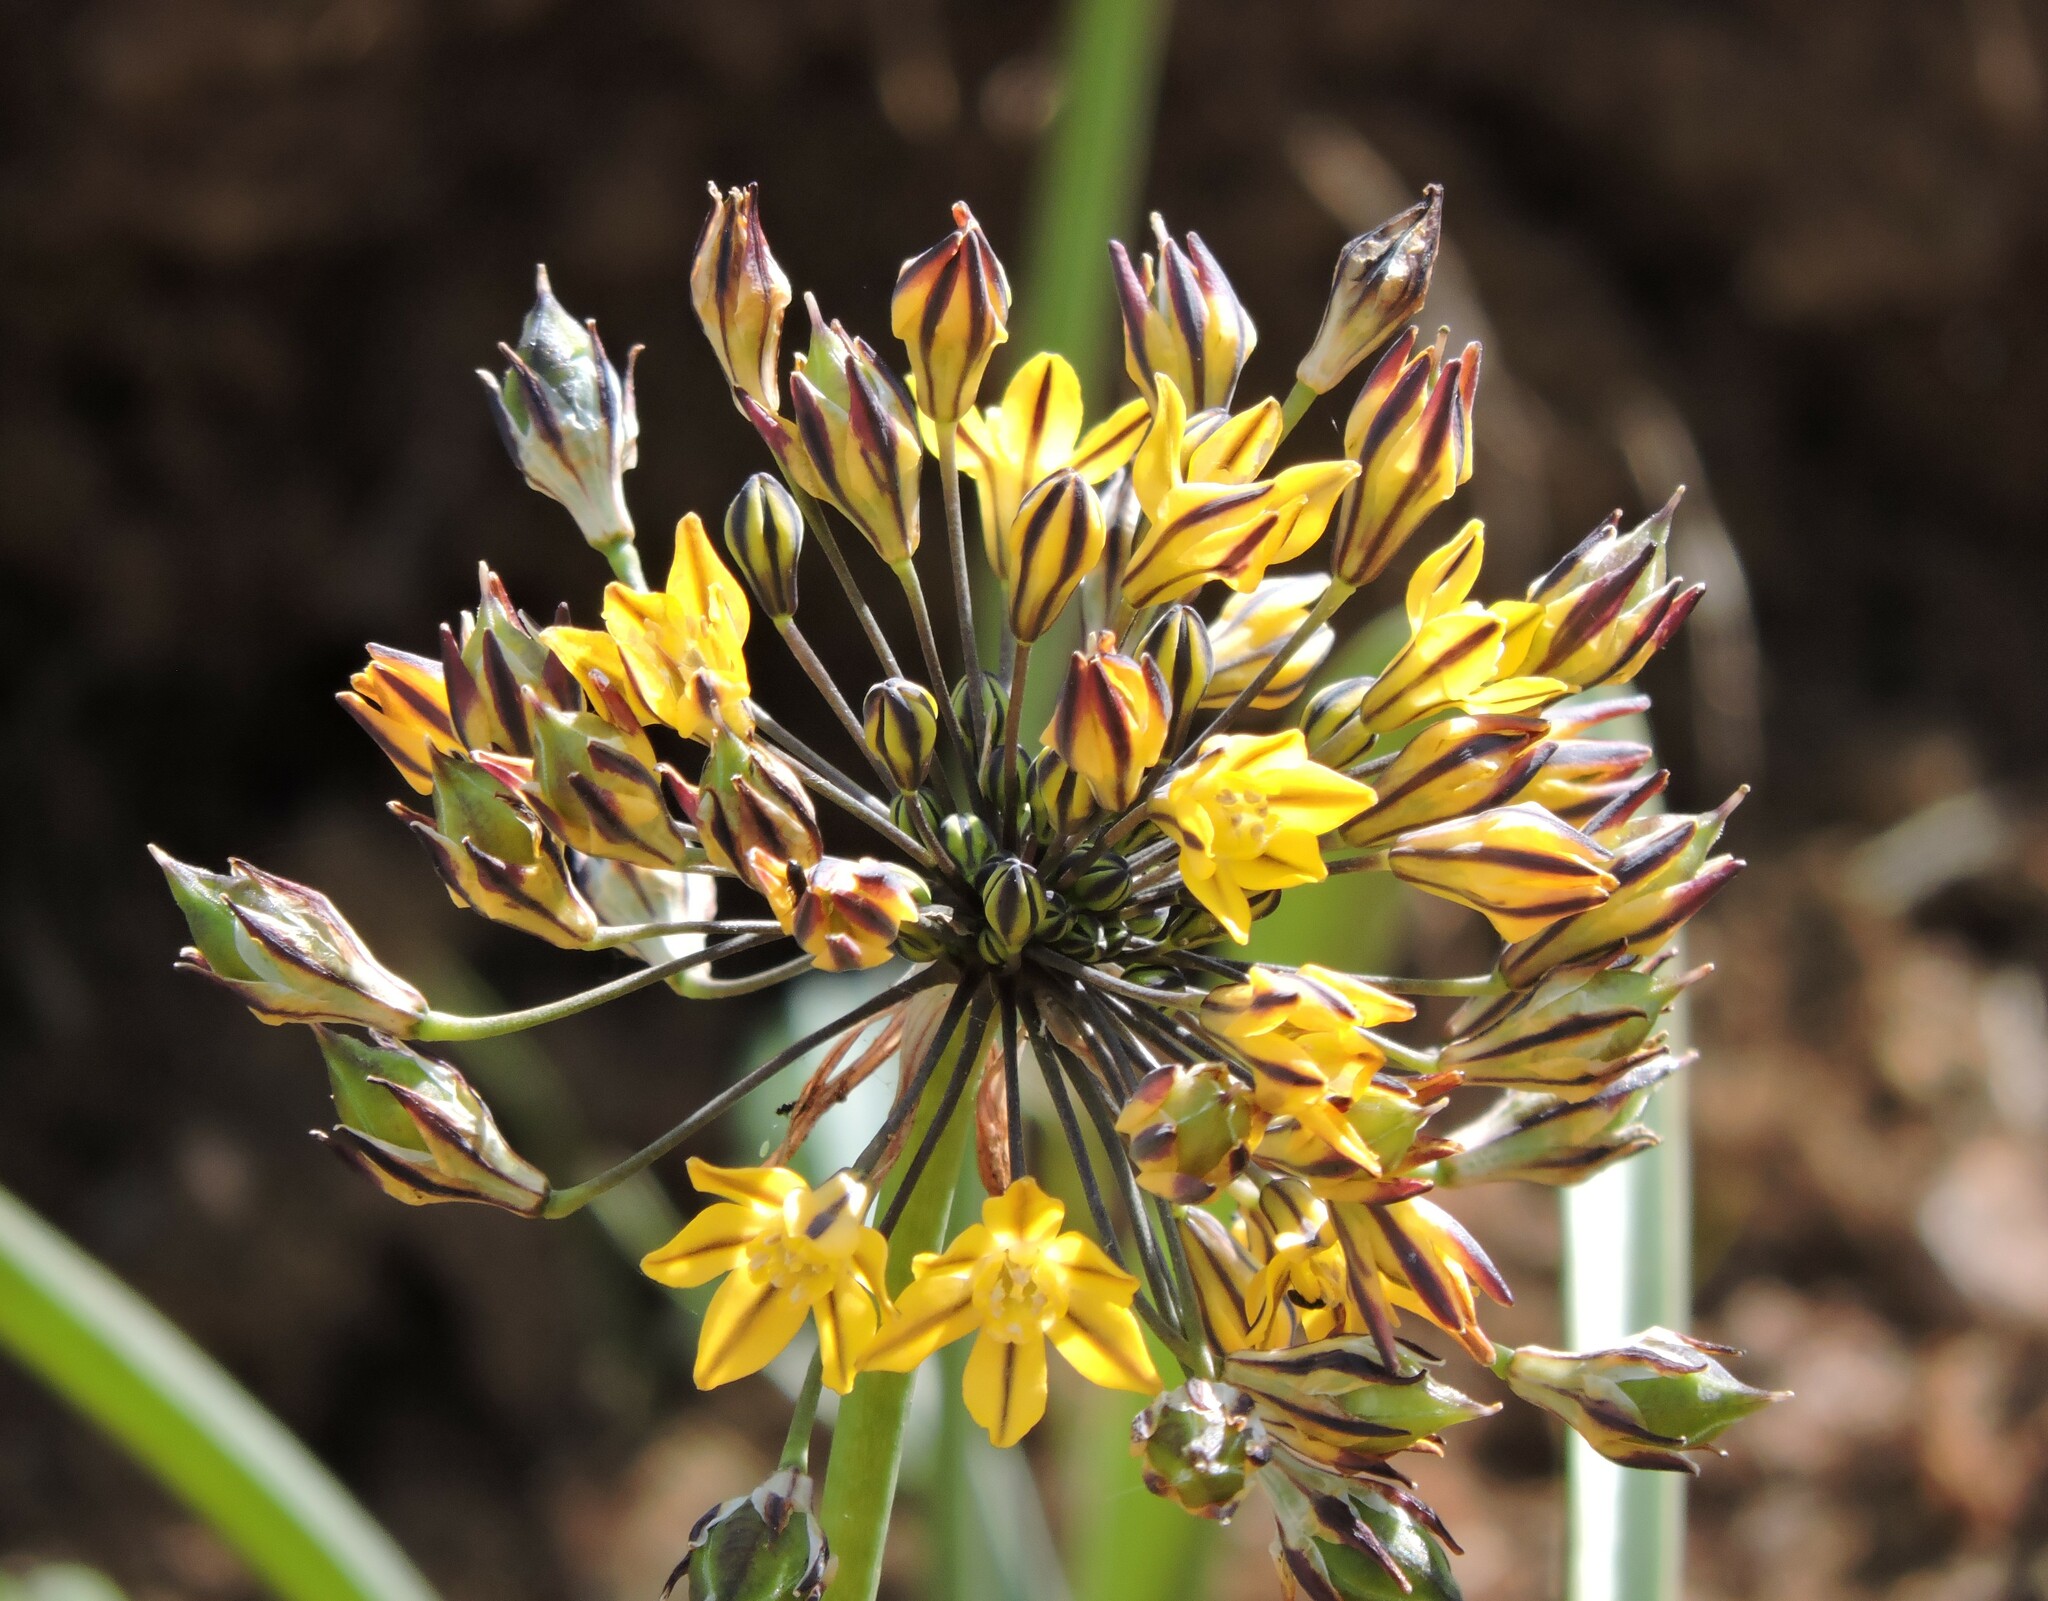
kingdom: Plantae
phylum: Tracheophyta
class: Liliopsida
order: Asparagales
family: Asparagaceae
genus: Triteleia
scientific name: Triteleia lugens
